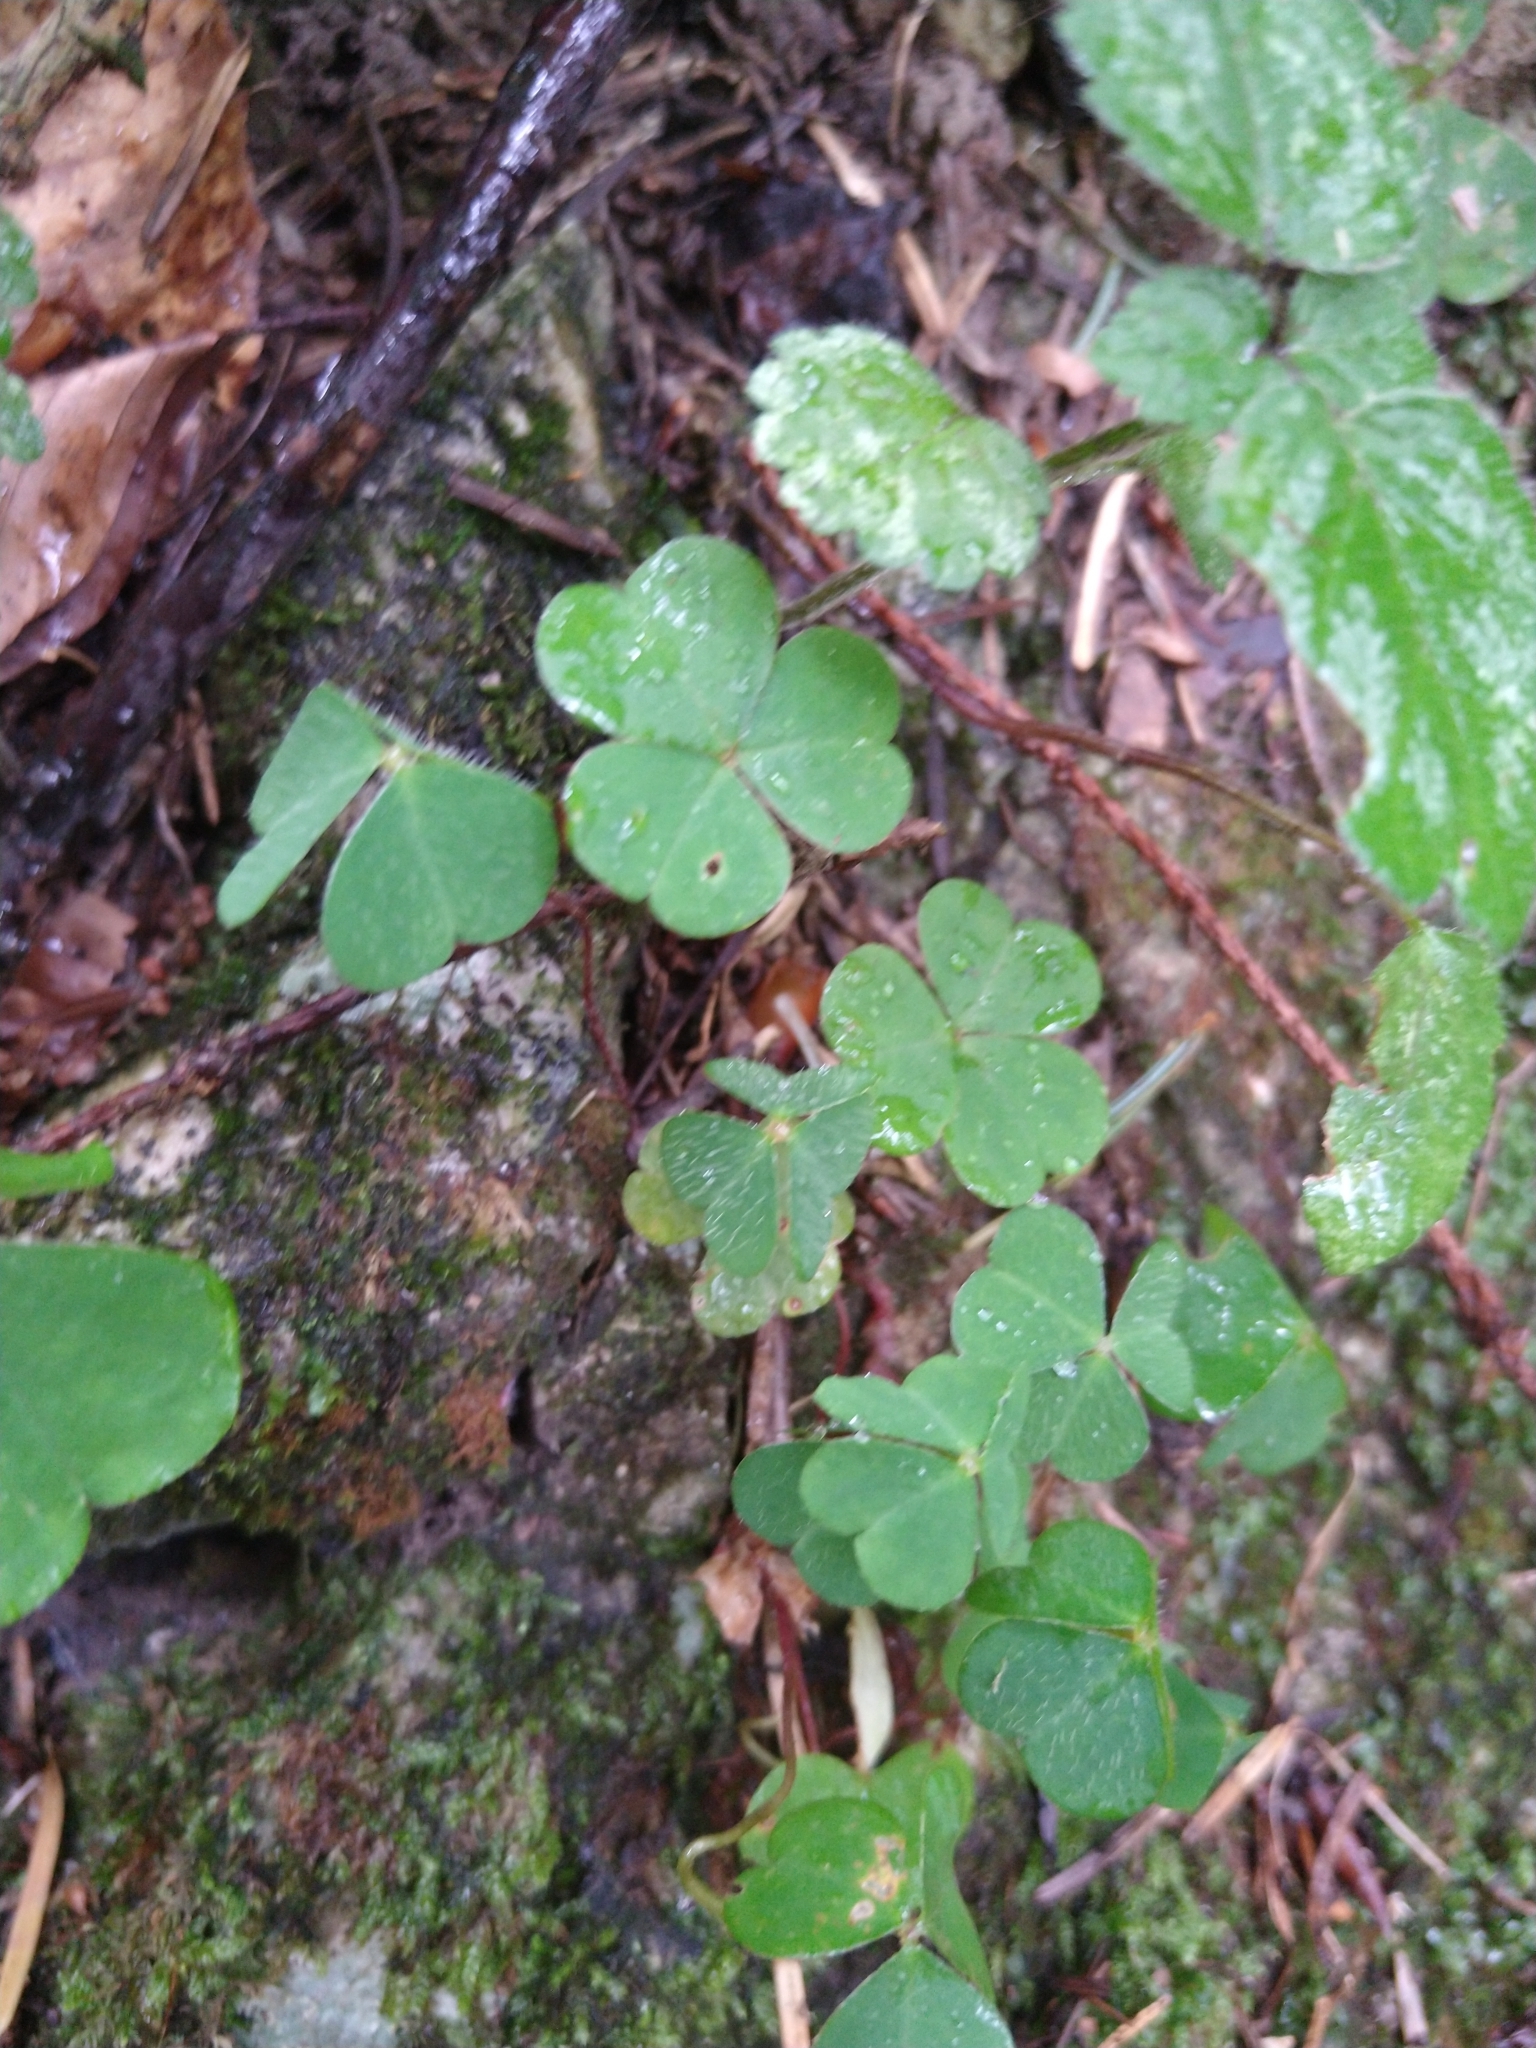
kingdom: Plantae
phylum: Tracheophyta
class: Magnoliopsida
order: Oxalidales
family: Oxalidaceae
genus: Oxalis
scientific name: Oxalis acetosella
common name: Wood-sorrel
